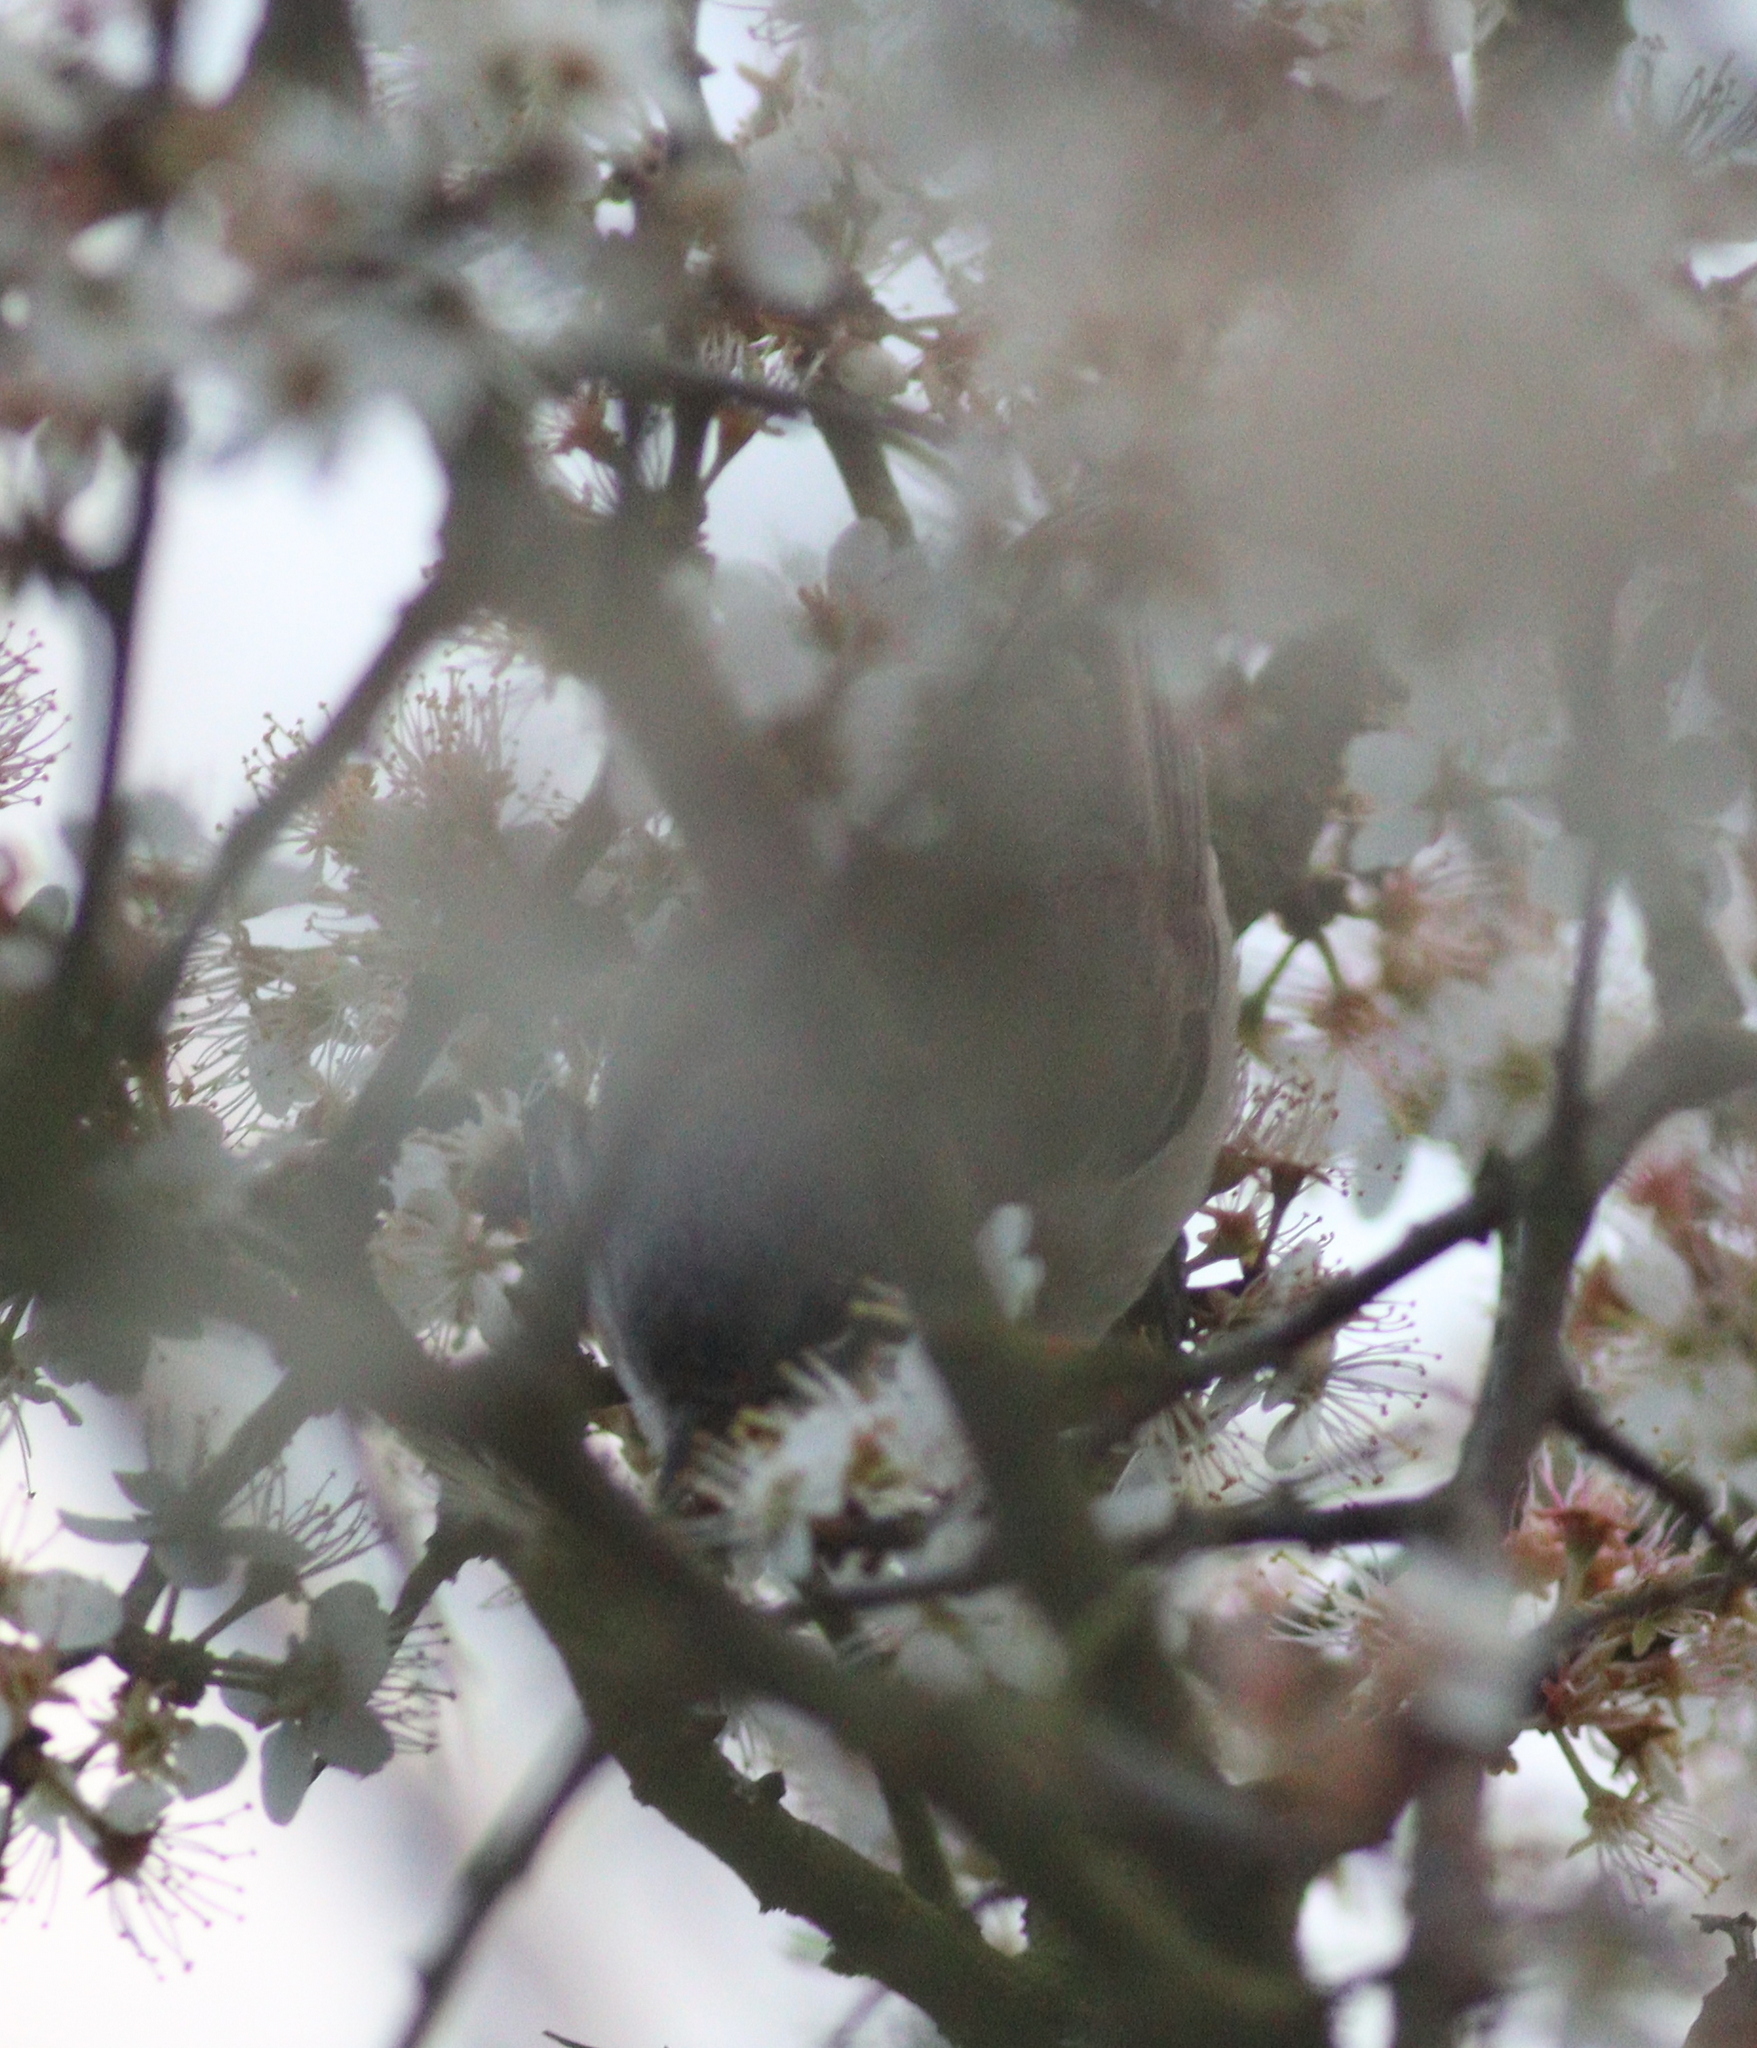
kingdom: Animalia
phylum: Chordata
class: Aves
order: Passeriformes
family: Sylviidae
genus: Sylvia
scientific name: Sylvia curruca
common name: Lesser whitethroat
